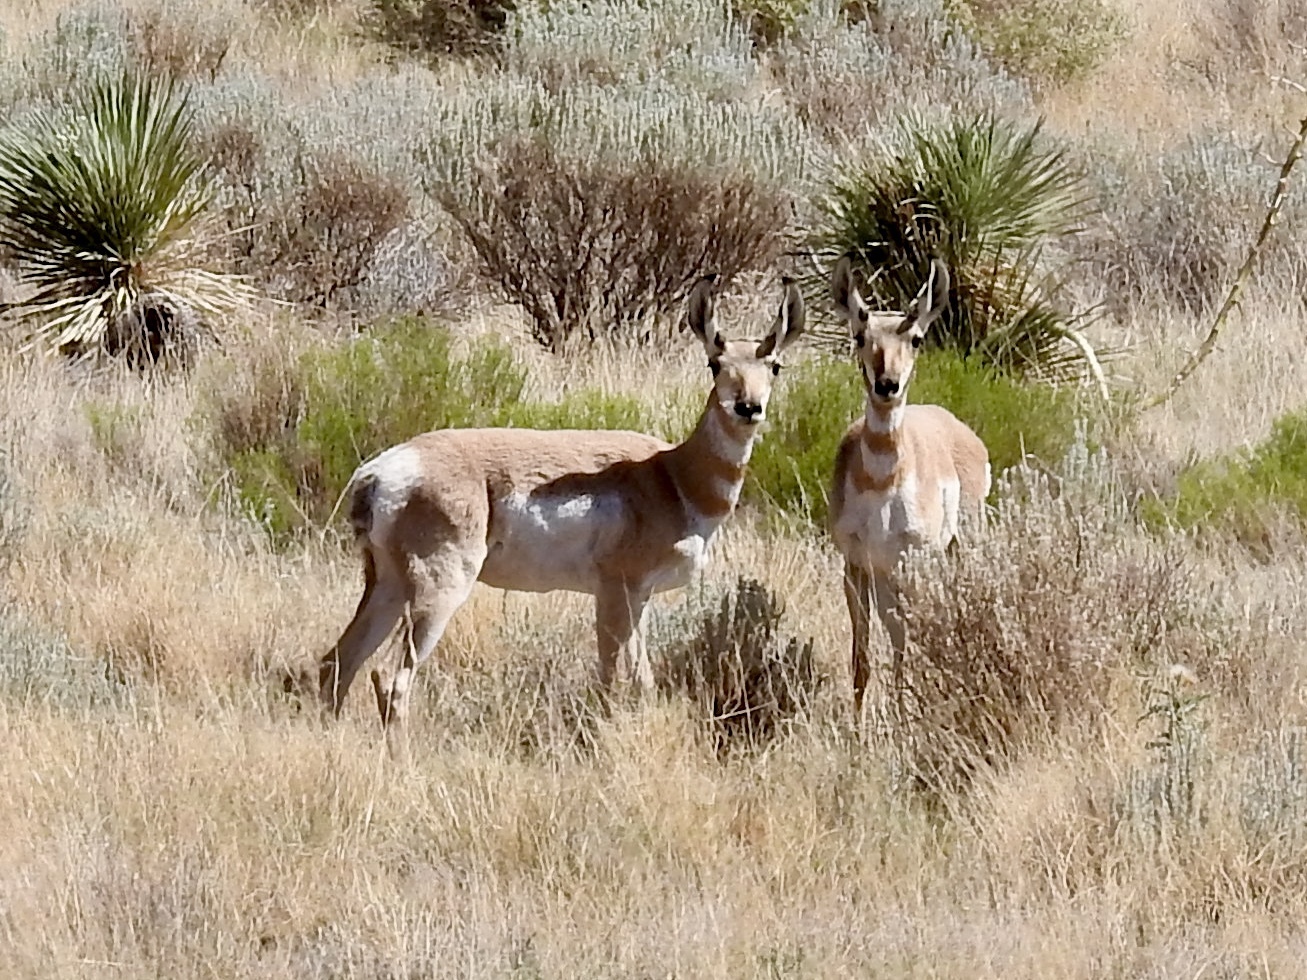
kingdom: Animalia
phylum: Chordata
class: Mammalia
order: Artiodactyla
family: Antilocapridae
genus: Antilocapra
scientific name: Antilocapra americana
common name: Pronghorn
